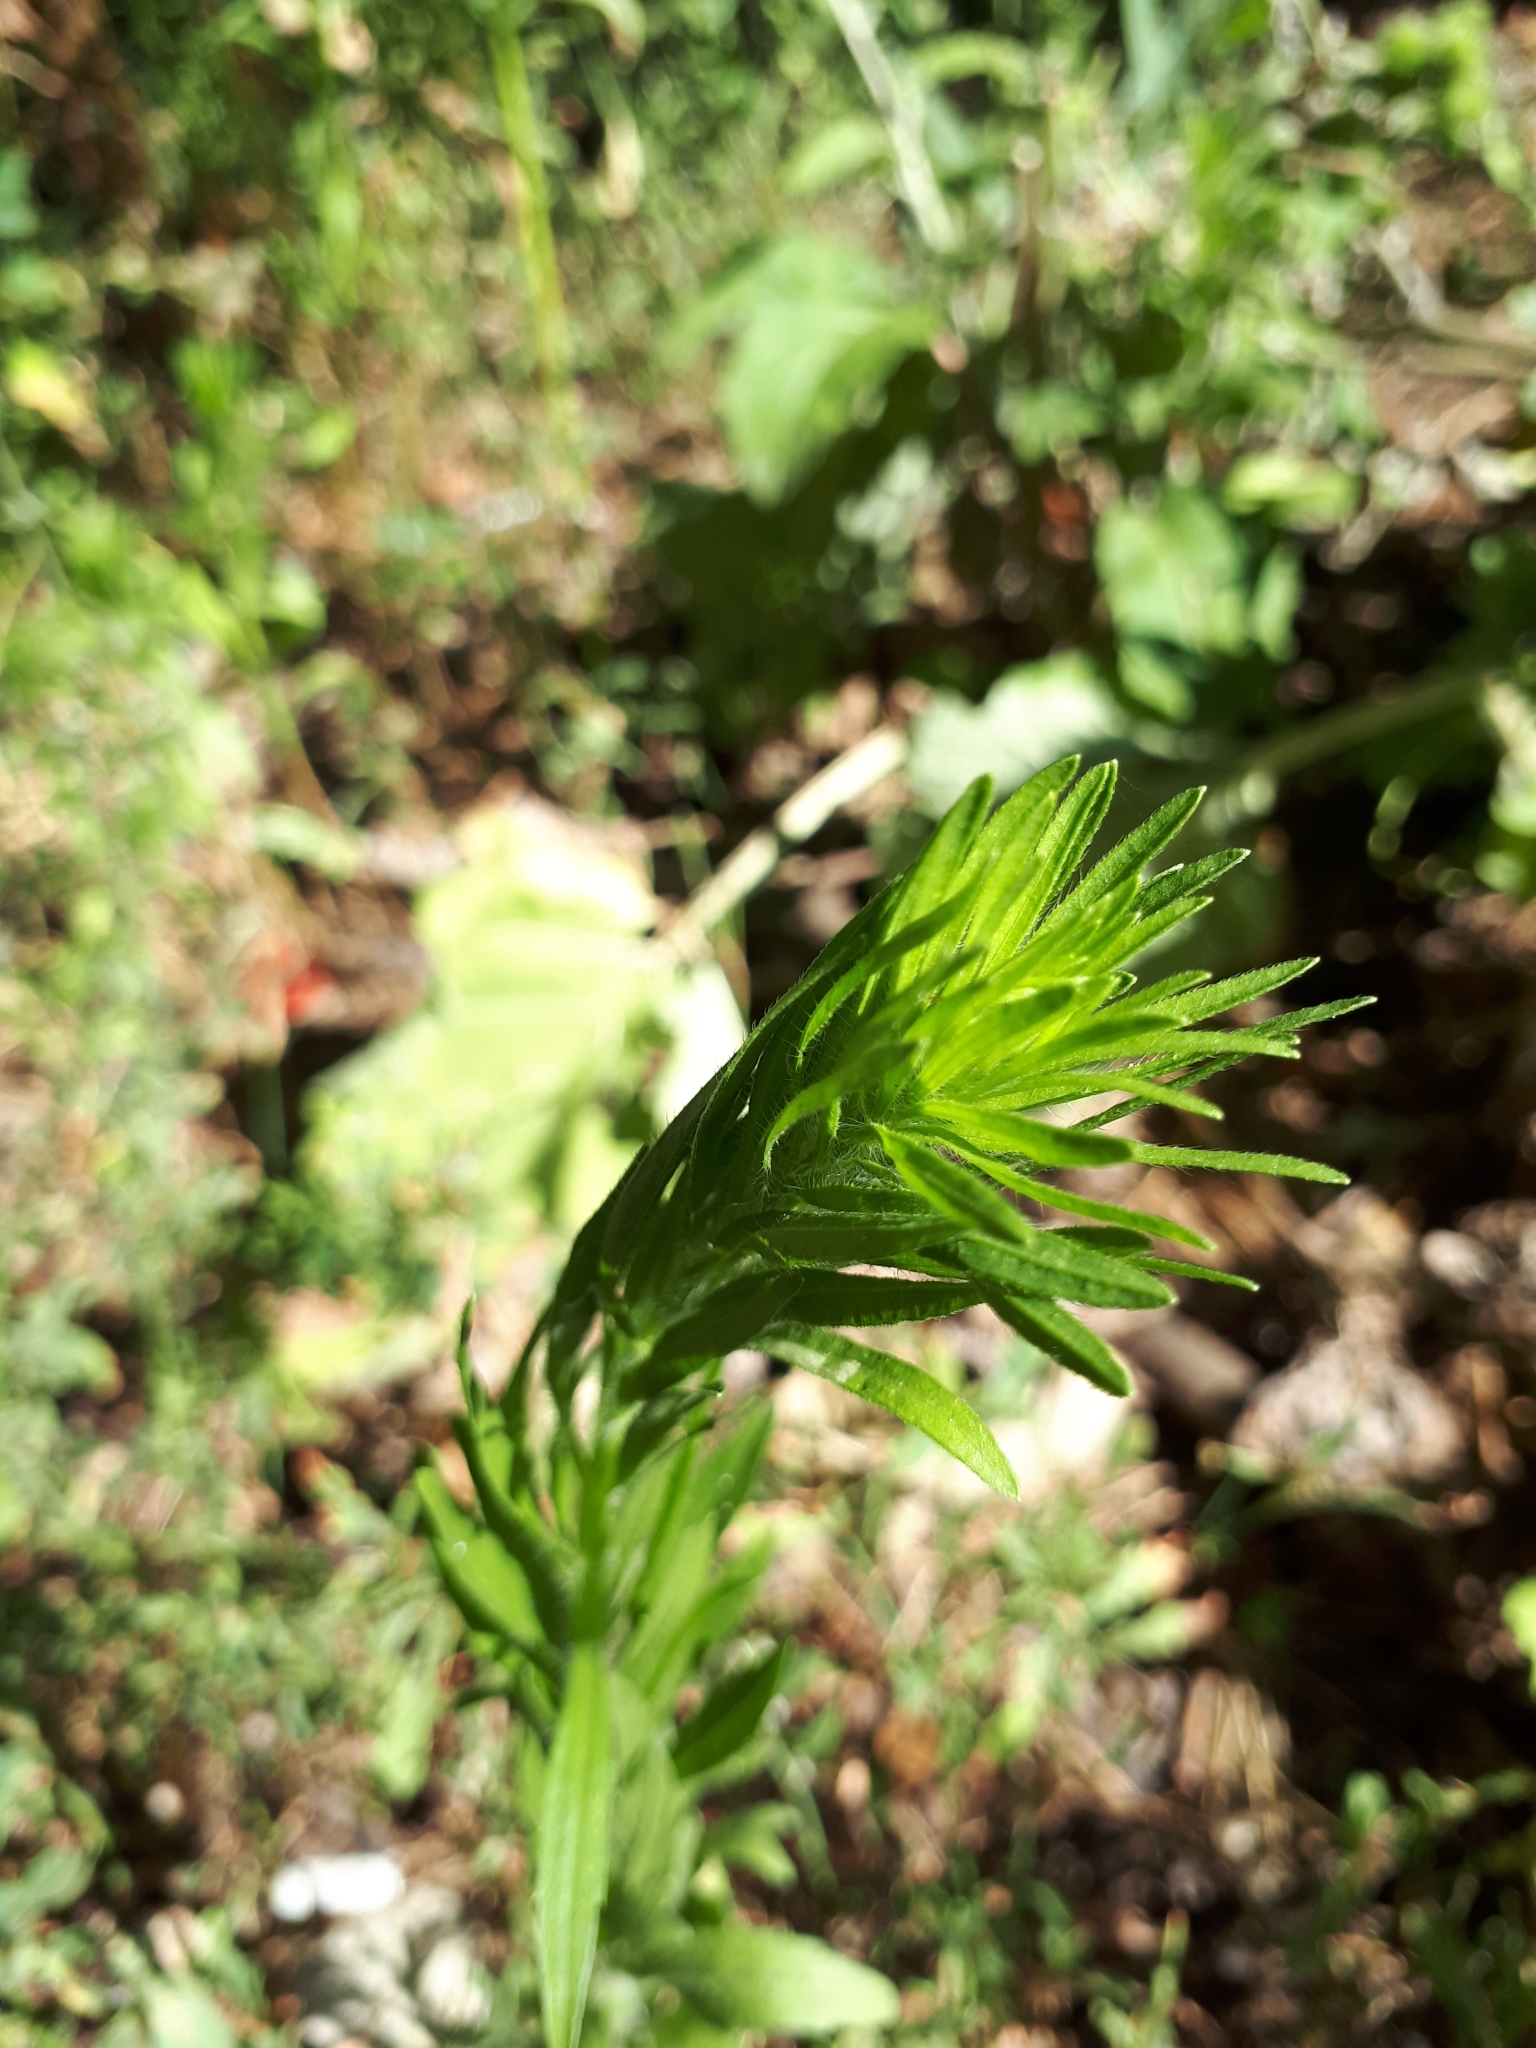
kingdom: Plantae
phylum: Tracheophyta
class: Magnoliopsida
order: Asterales
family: Asteraceae
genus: Erigeron
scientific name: Erigeron canadensis
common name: Canadian fleabane
